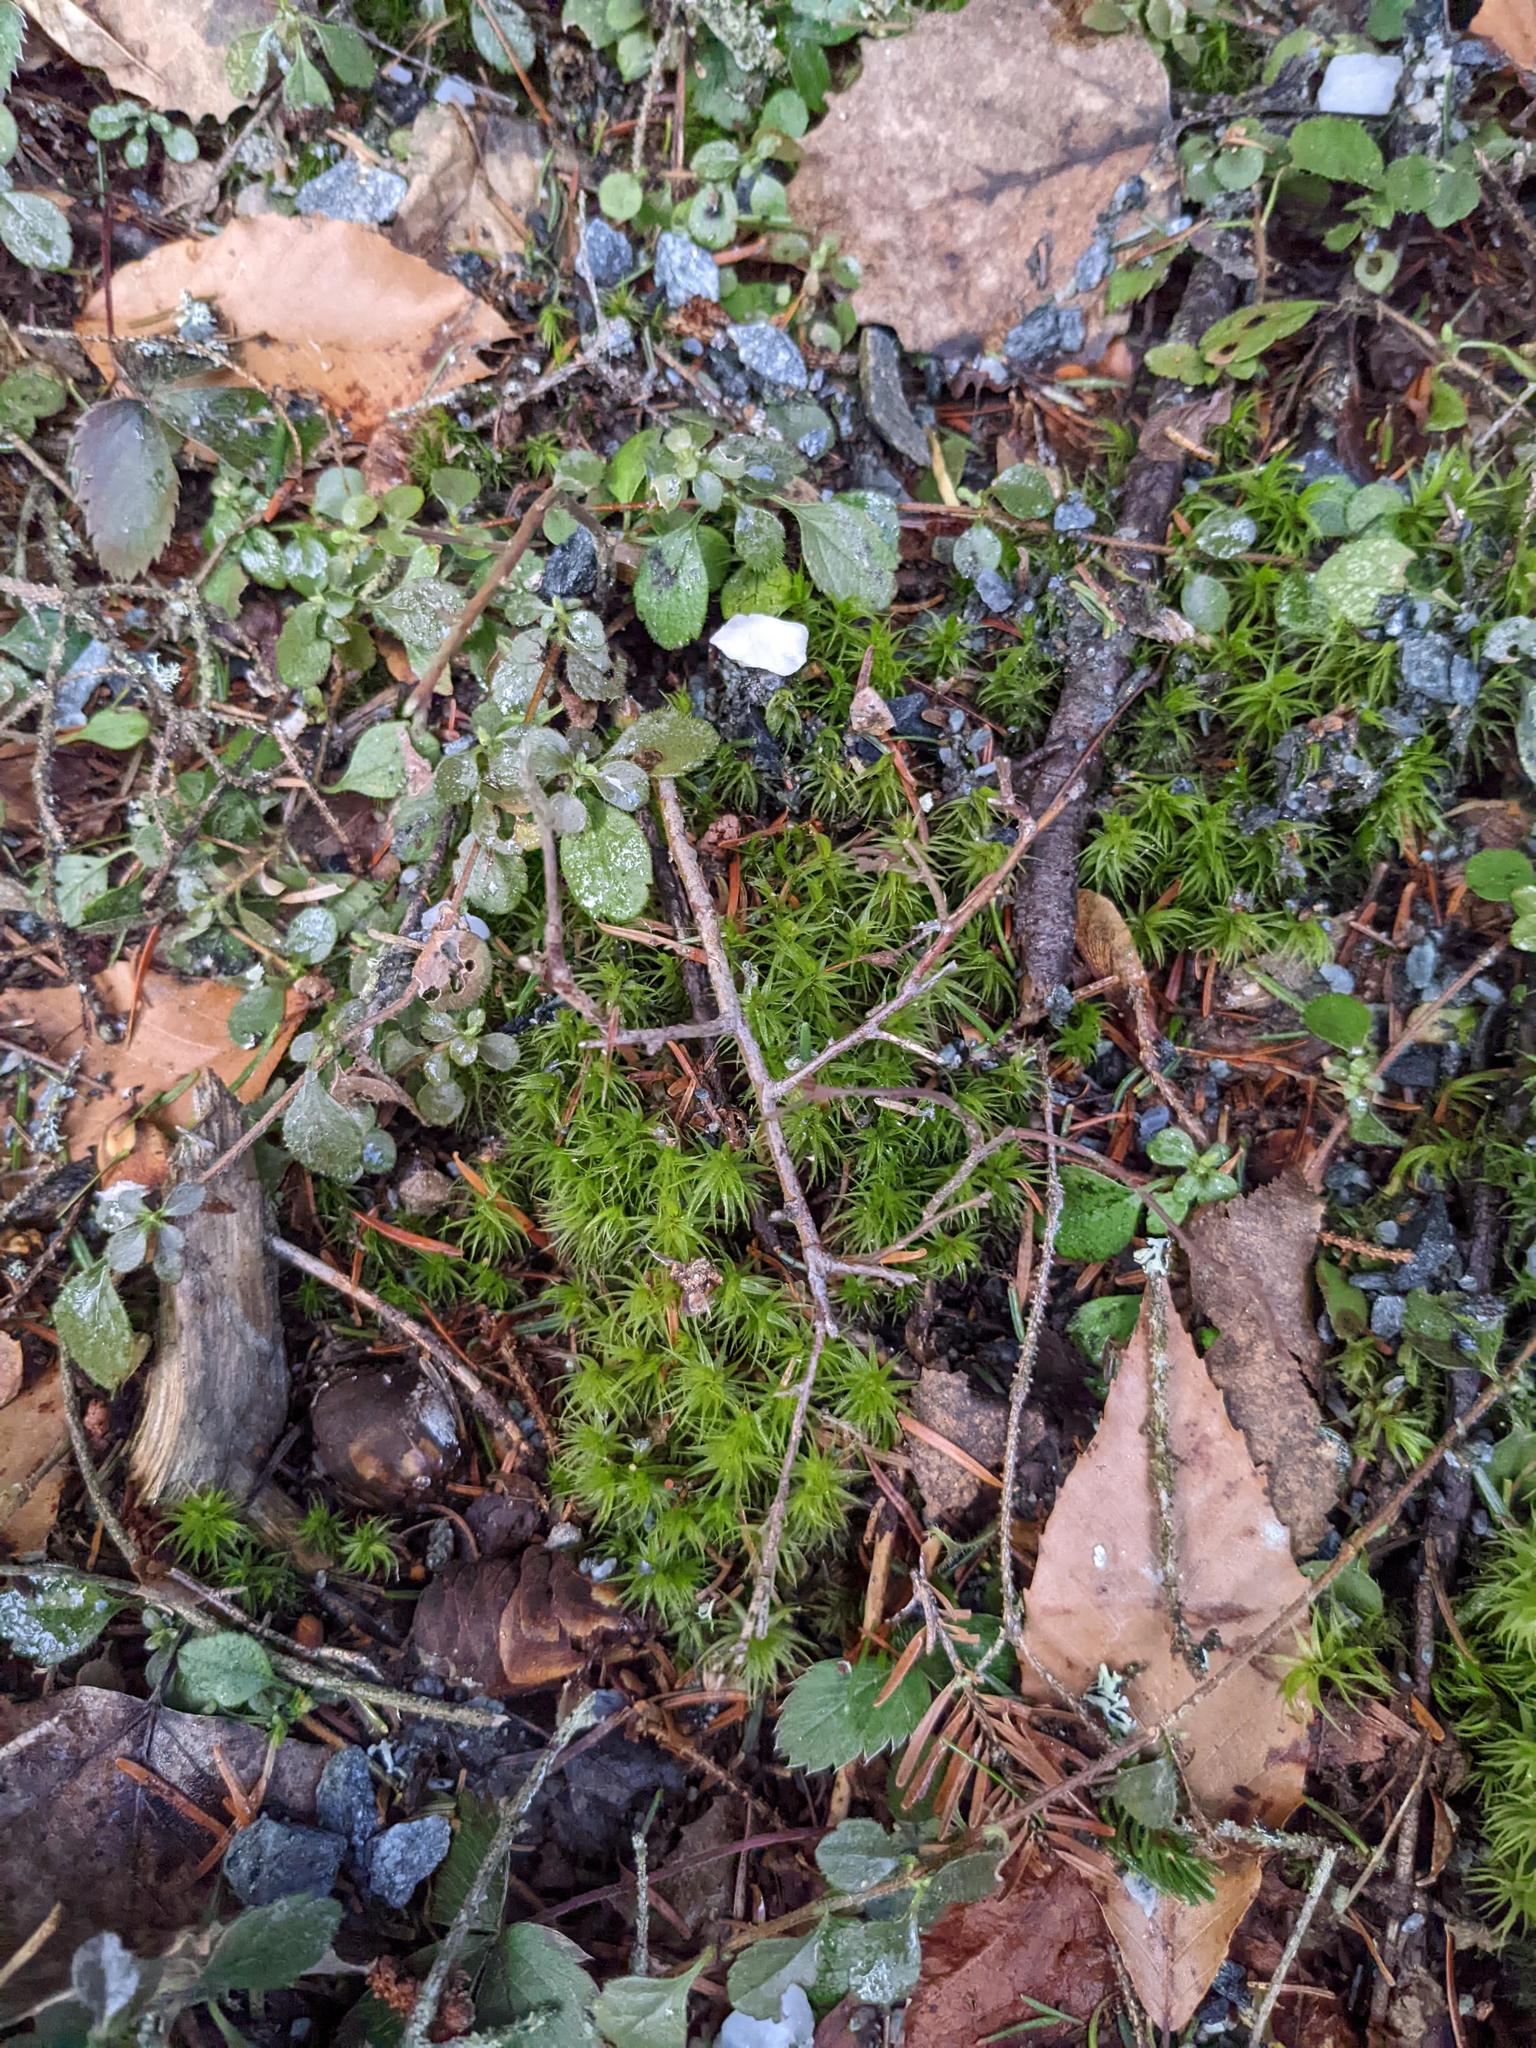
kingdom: Plantae
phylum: Tracheophyta
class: Magnoliopsida
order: Dipsacales
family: Caprifoliaceae
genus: Linnaea
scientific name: Linnaea borealis
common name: Twinflower
